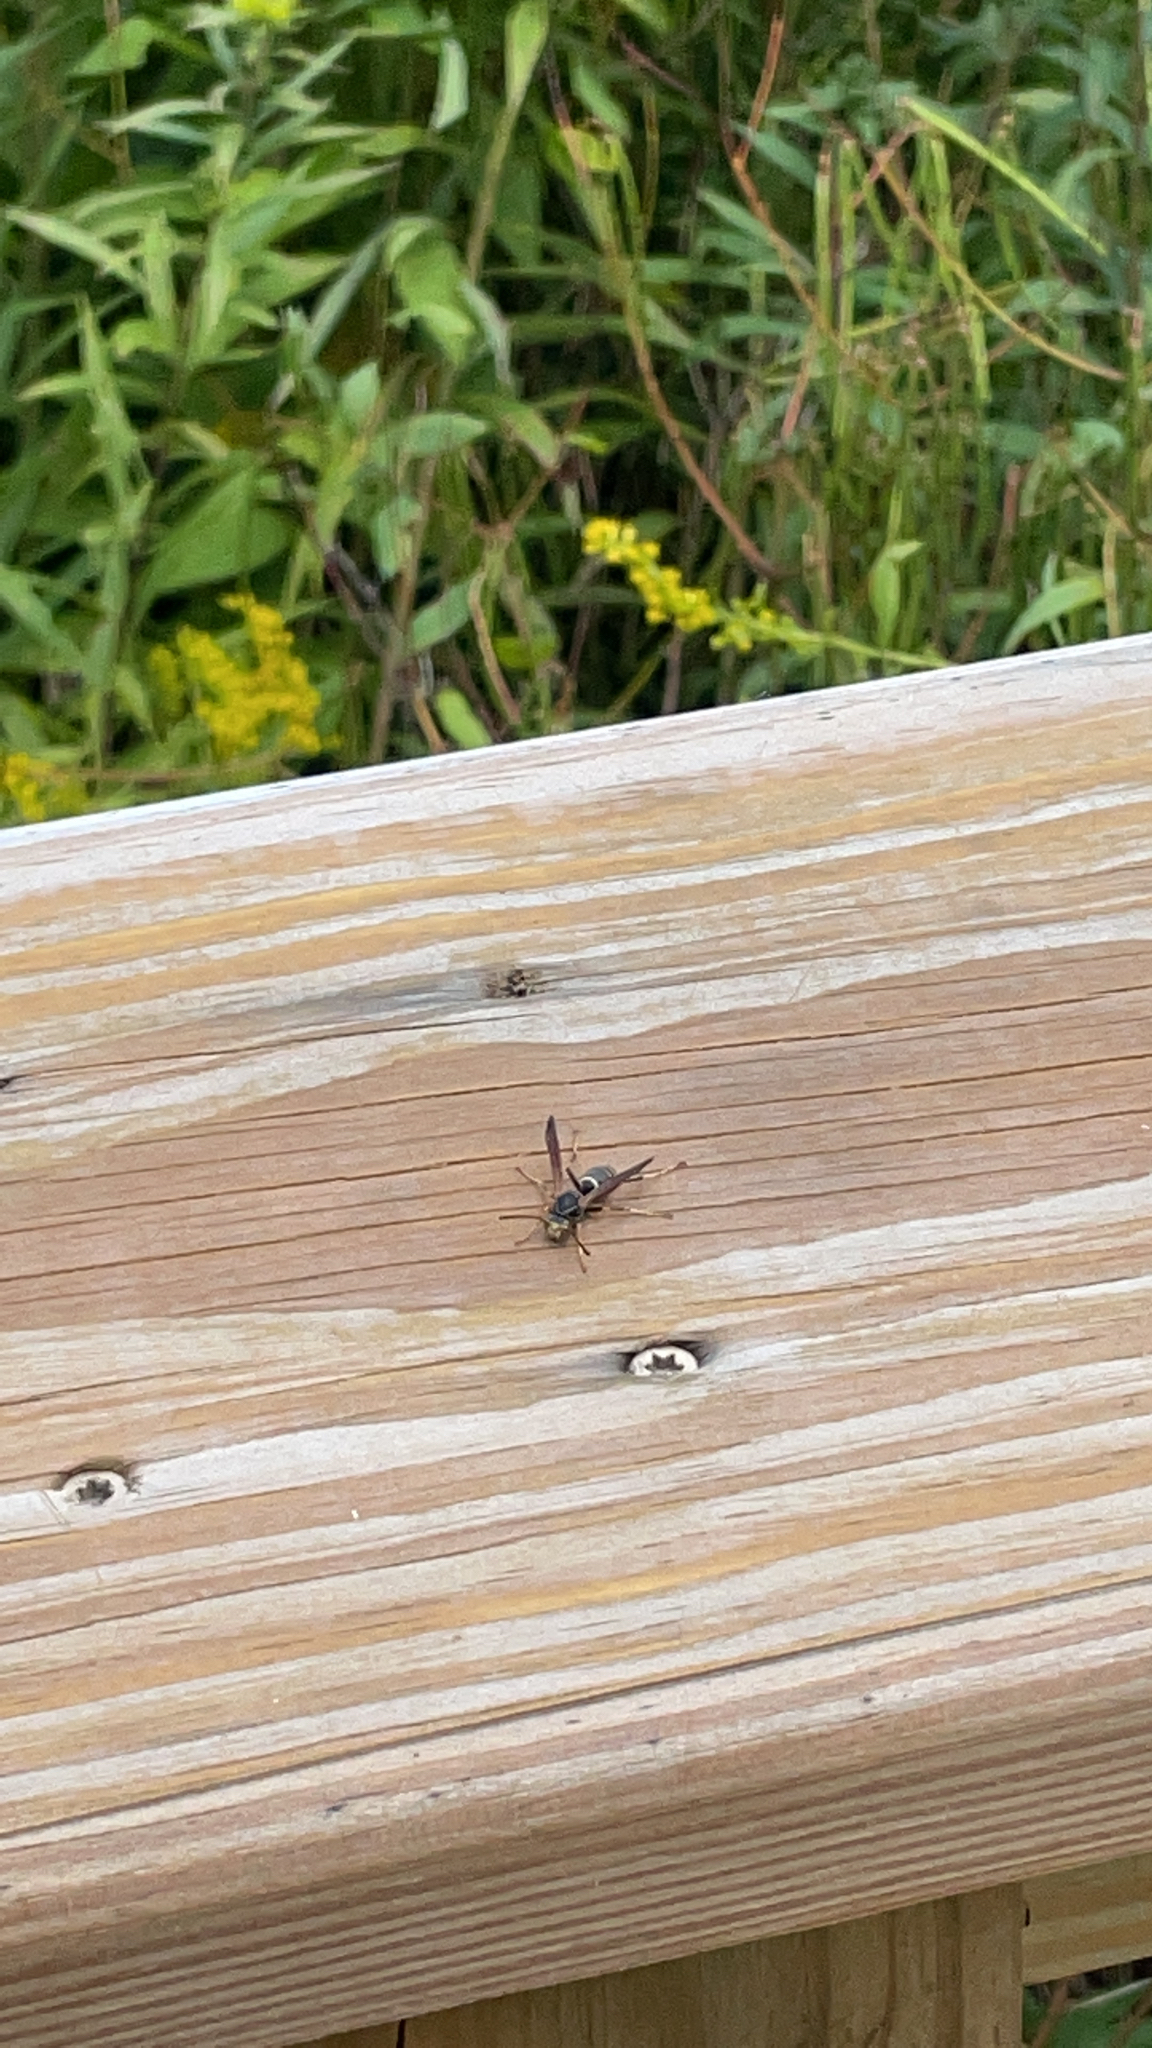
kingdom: Animalia
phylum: Arthropoda
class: Insecta
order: Hymenoptera
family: Eumenidae
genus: Polistes
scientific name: Polistes fuscatus
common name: Dark paper wasp
